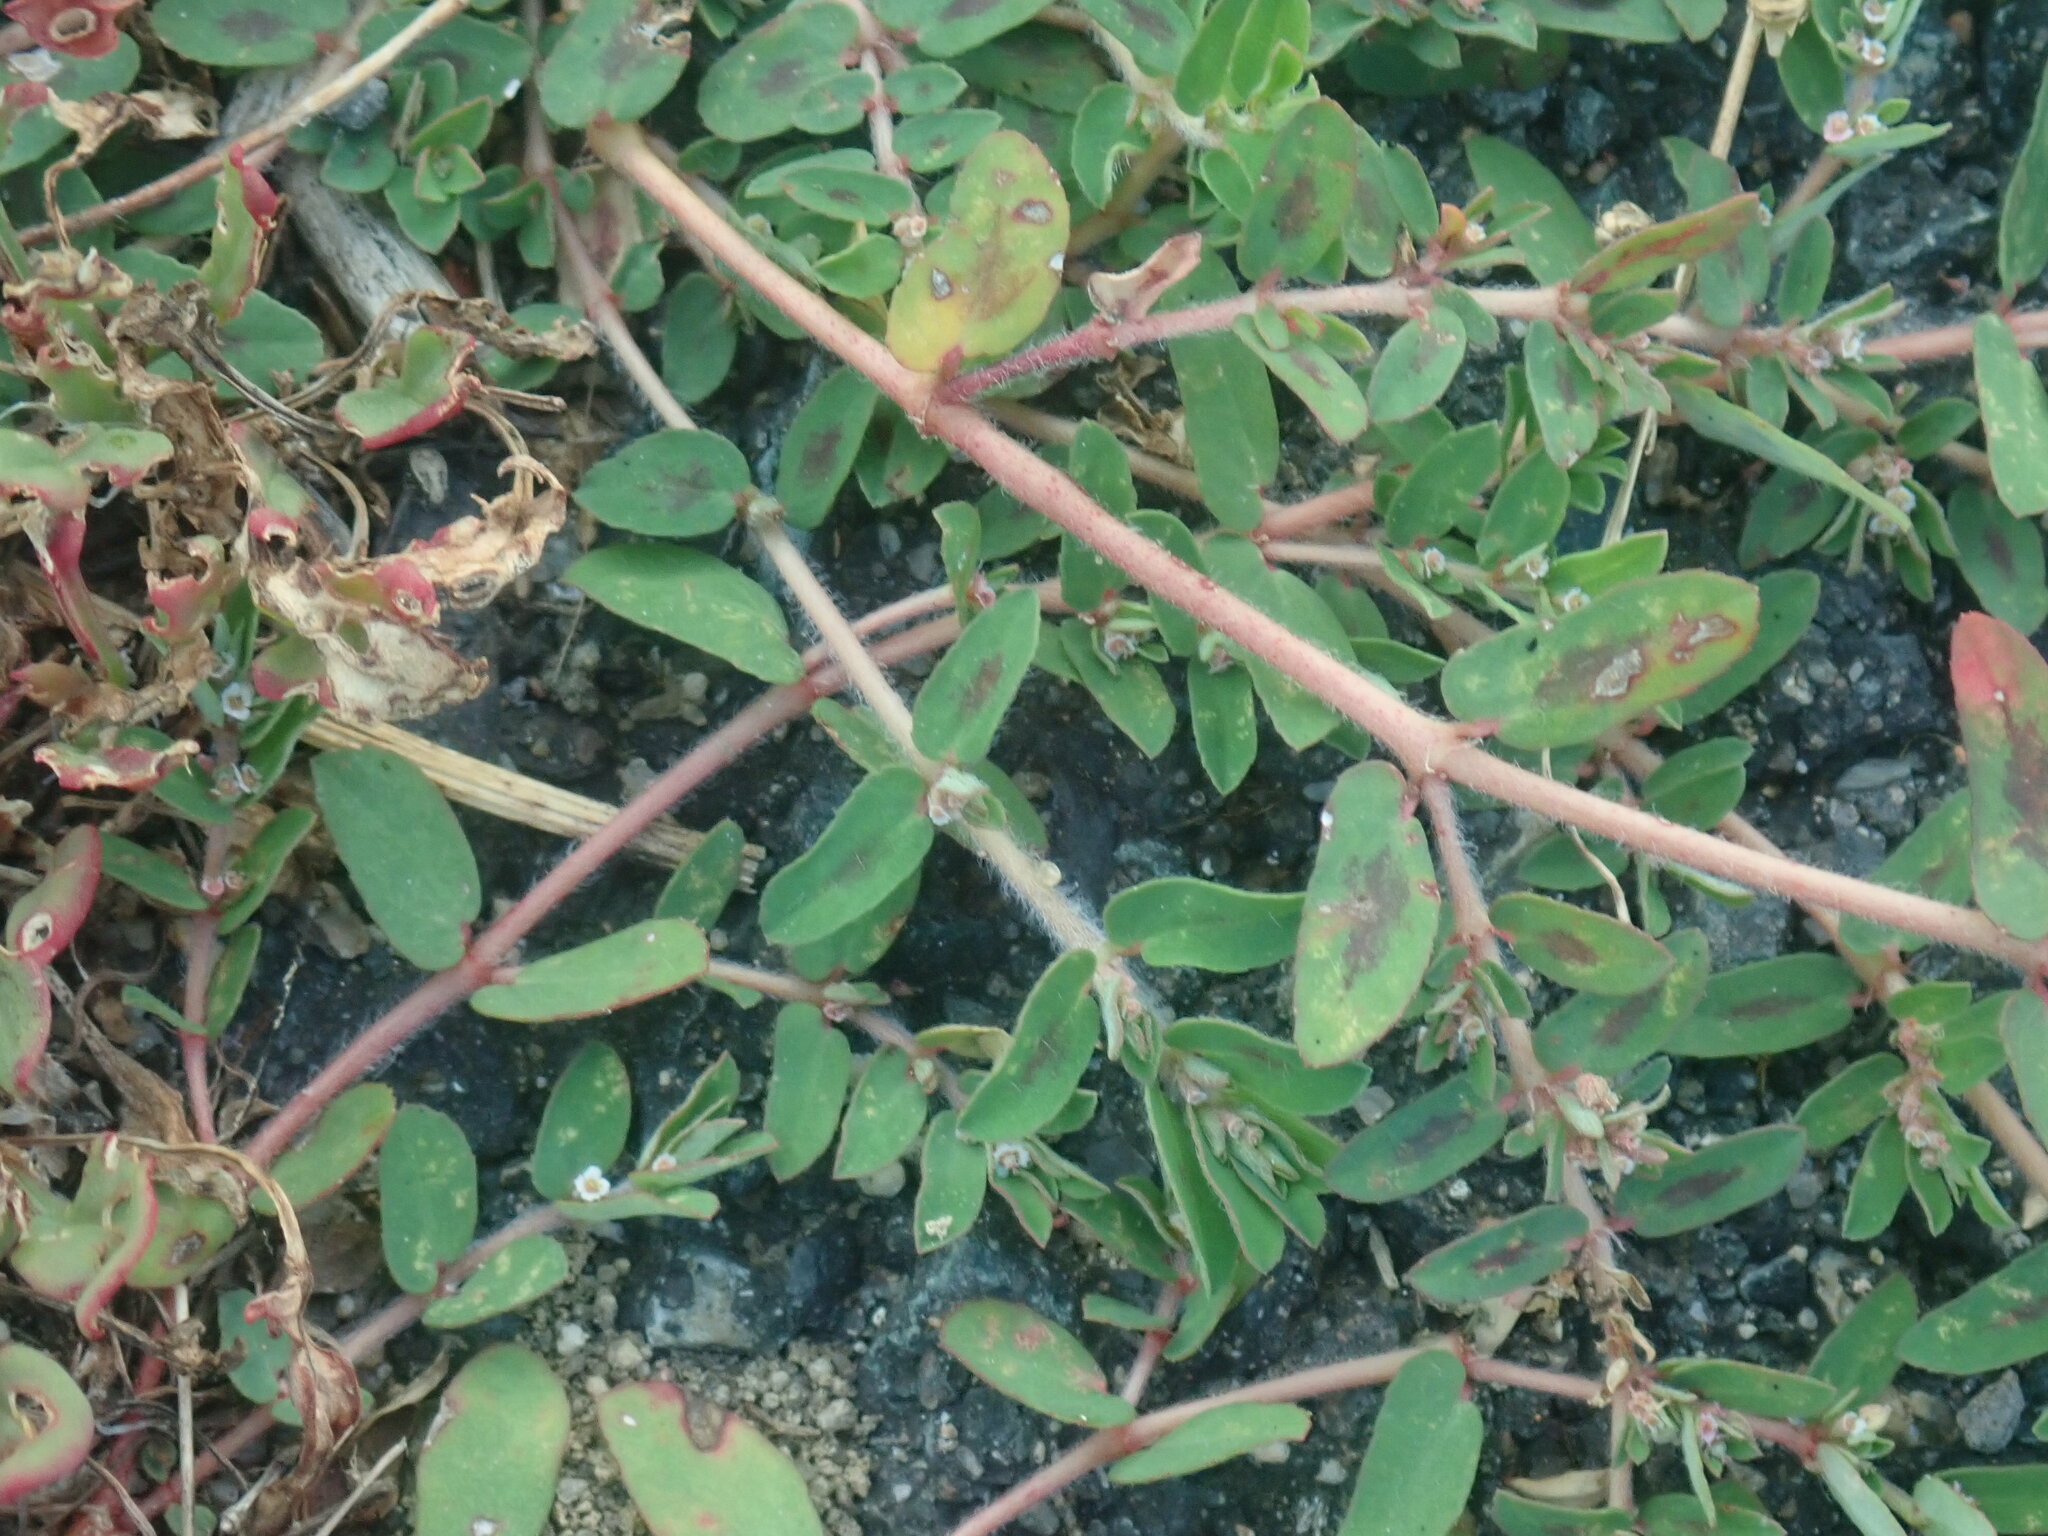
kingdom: Plantae
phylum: Tracheophyta
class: Magnoliopsida
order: Malpighiales
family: Euphorbiaceae
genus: Euphorbia
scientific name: Euphorbia maculata
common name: Spotted spurge
